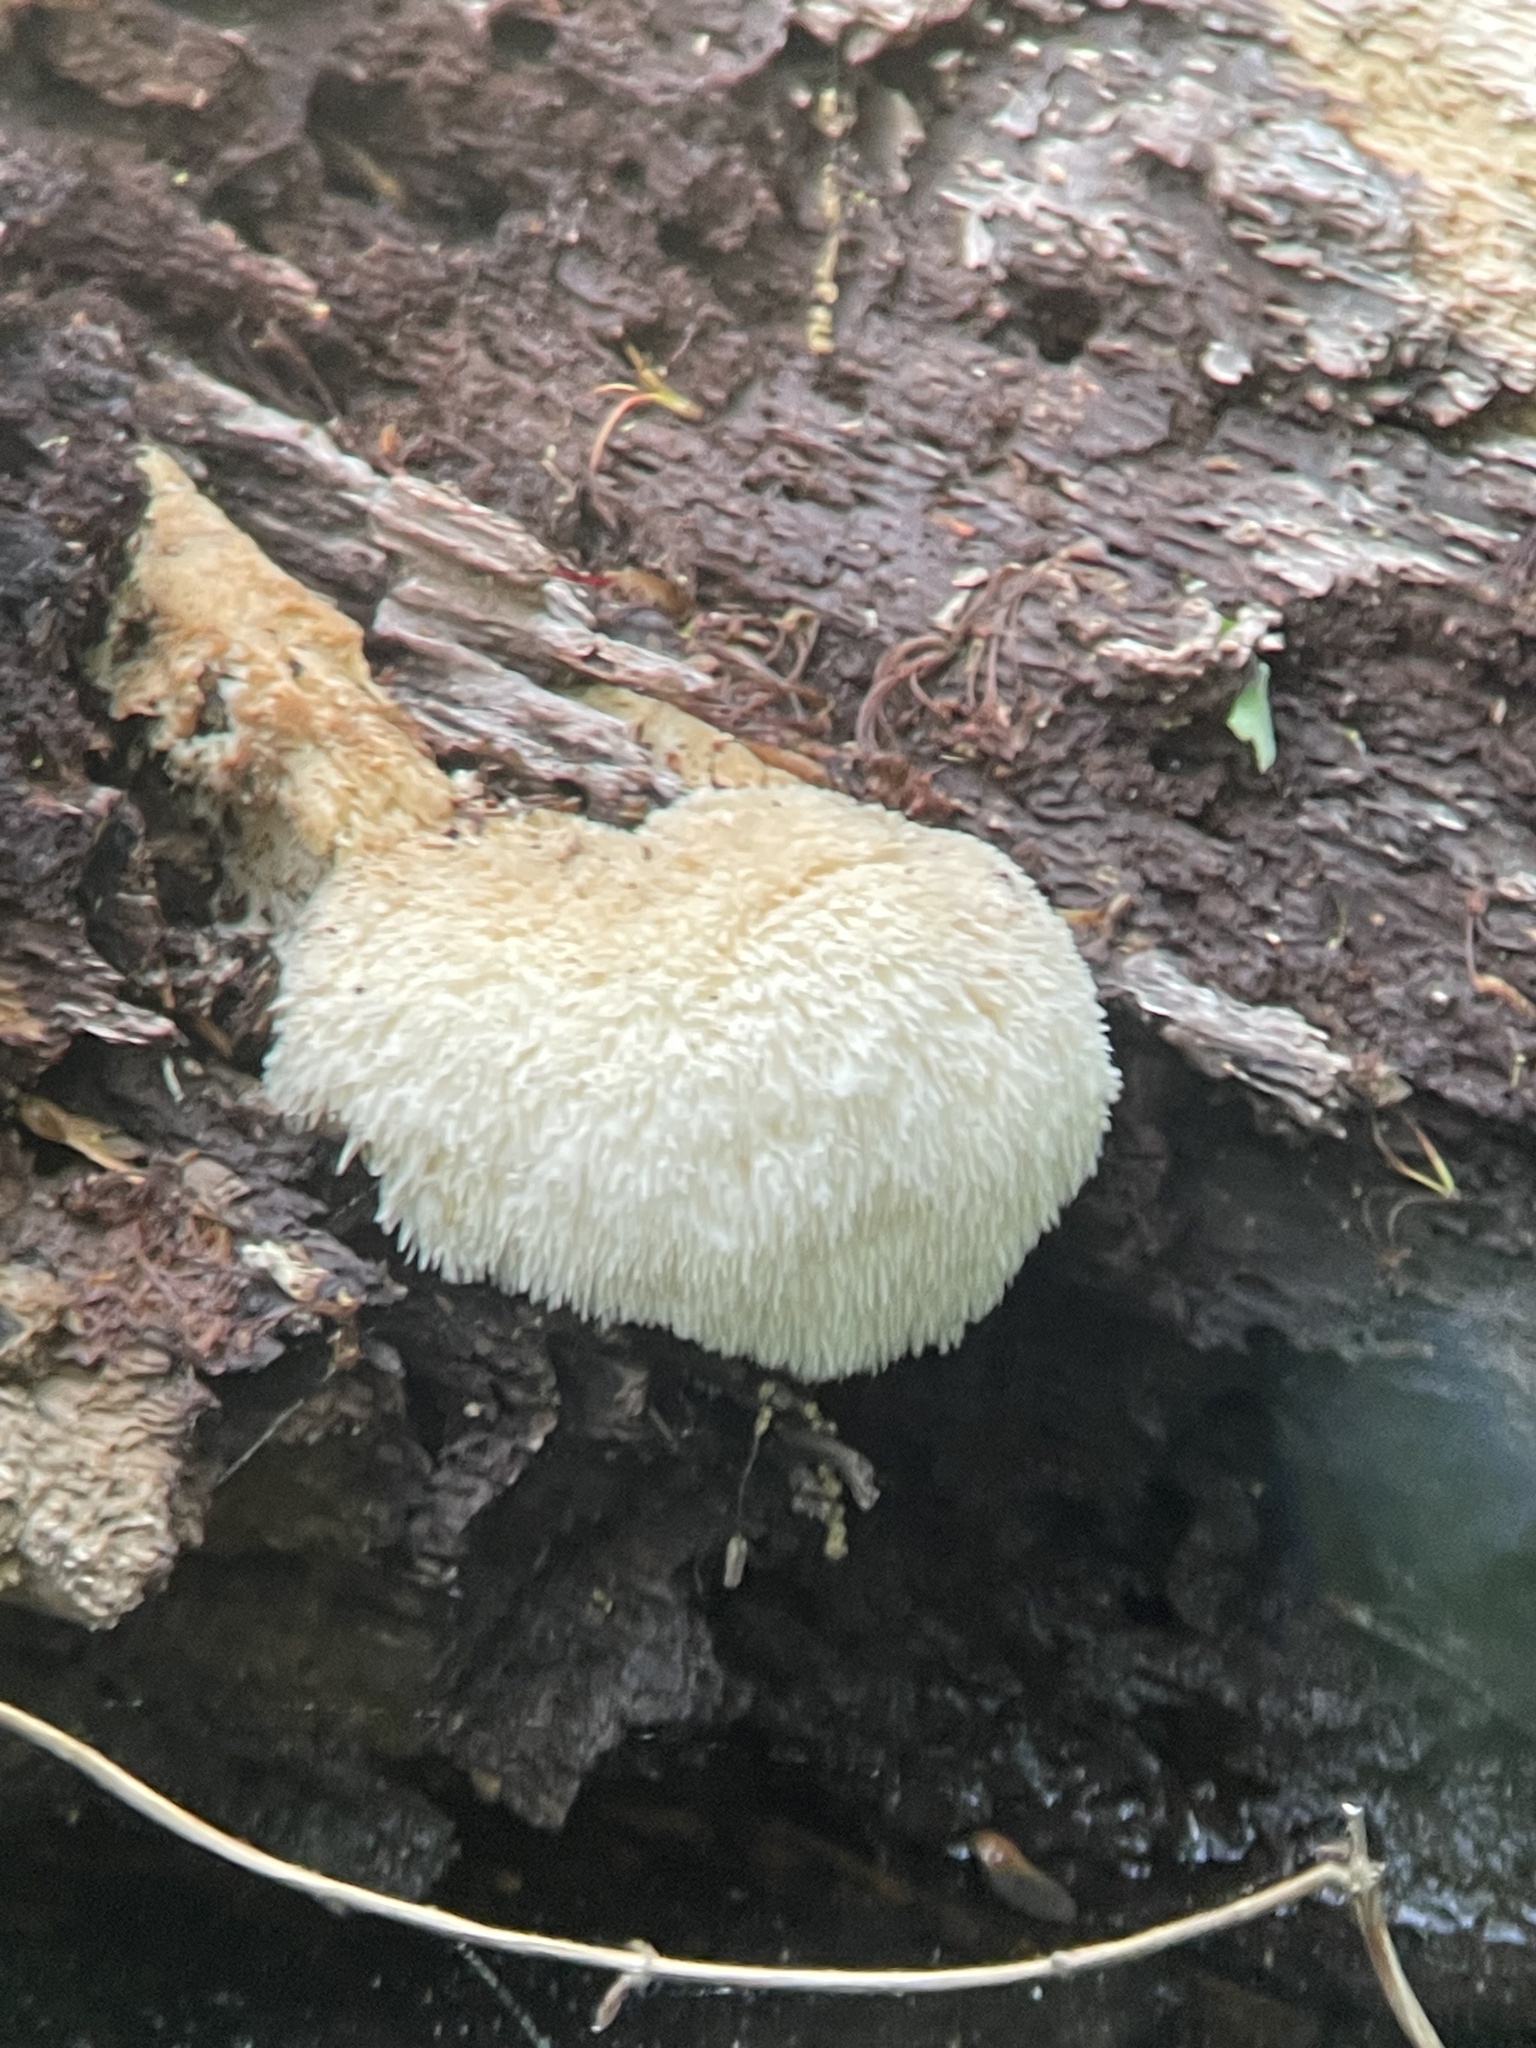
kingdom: Fungi
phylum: Basidiomycota
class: Agaricomycetes
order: Russulales
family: Hericiaceae
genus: Hericium
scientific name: Hericium erinaceus
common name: Bearded tooth
